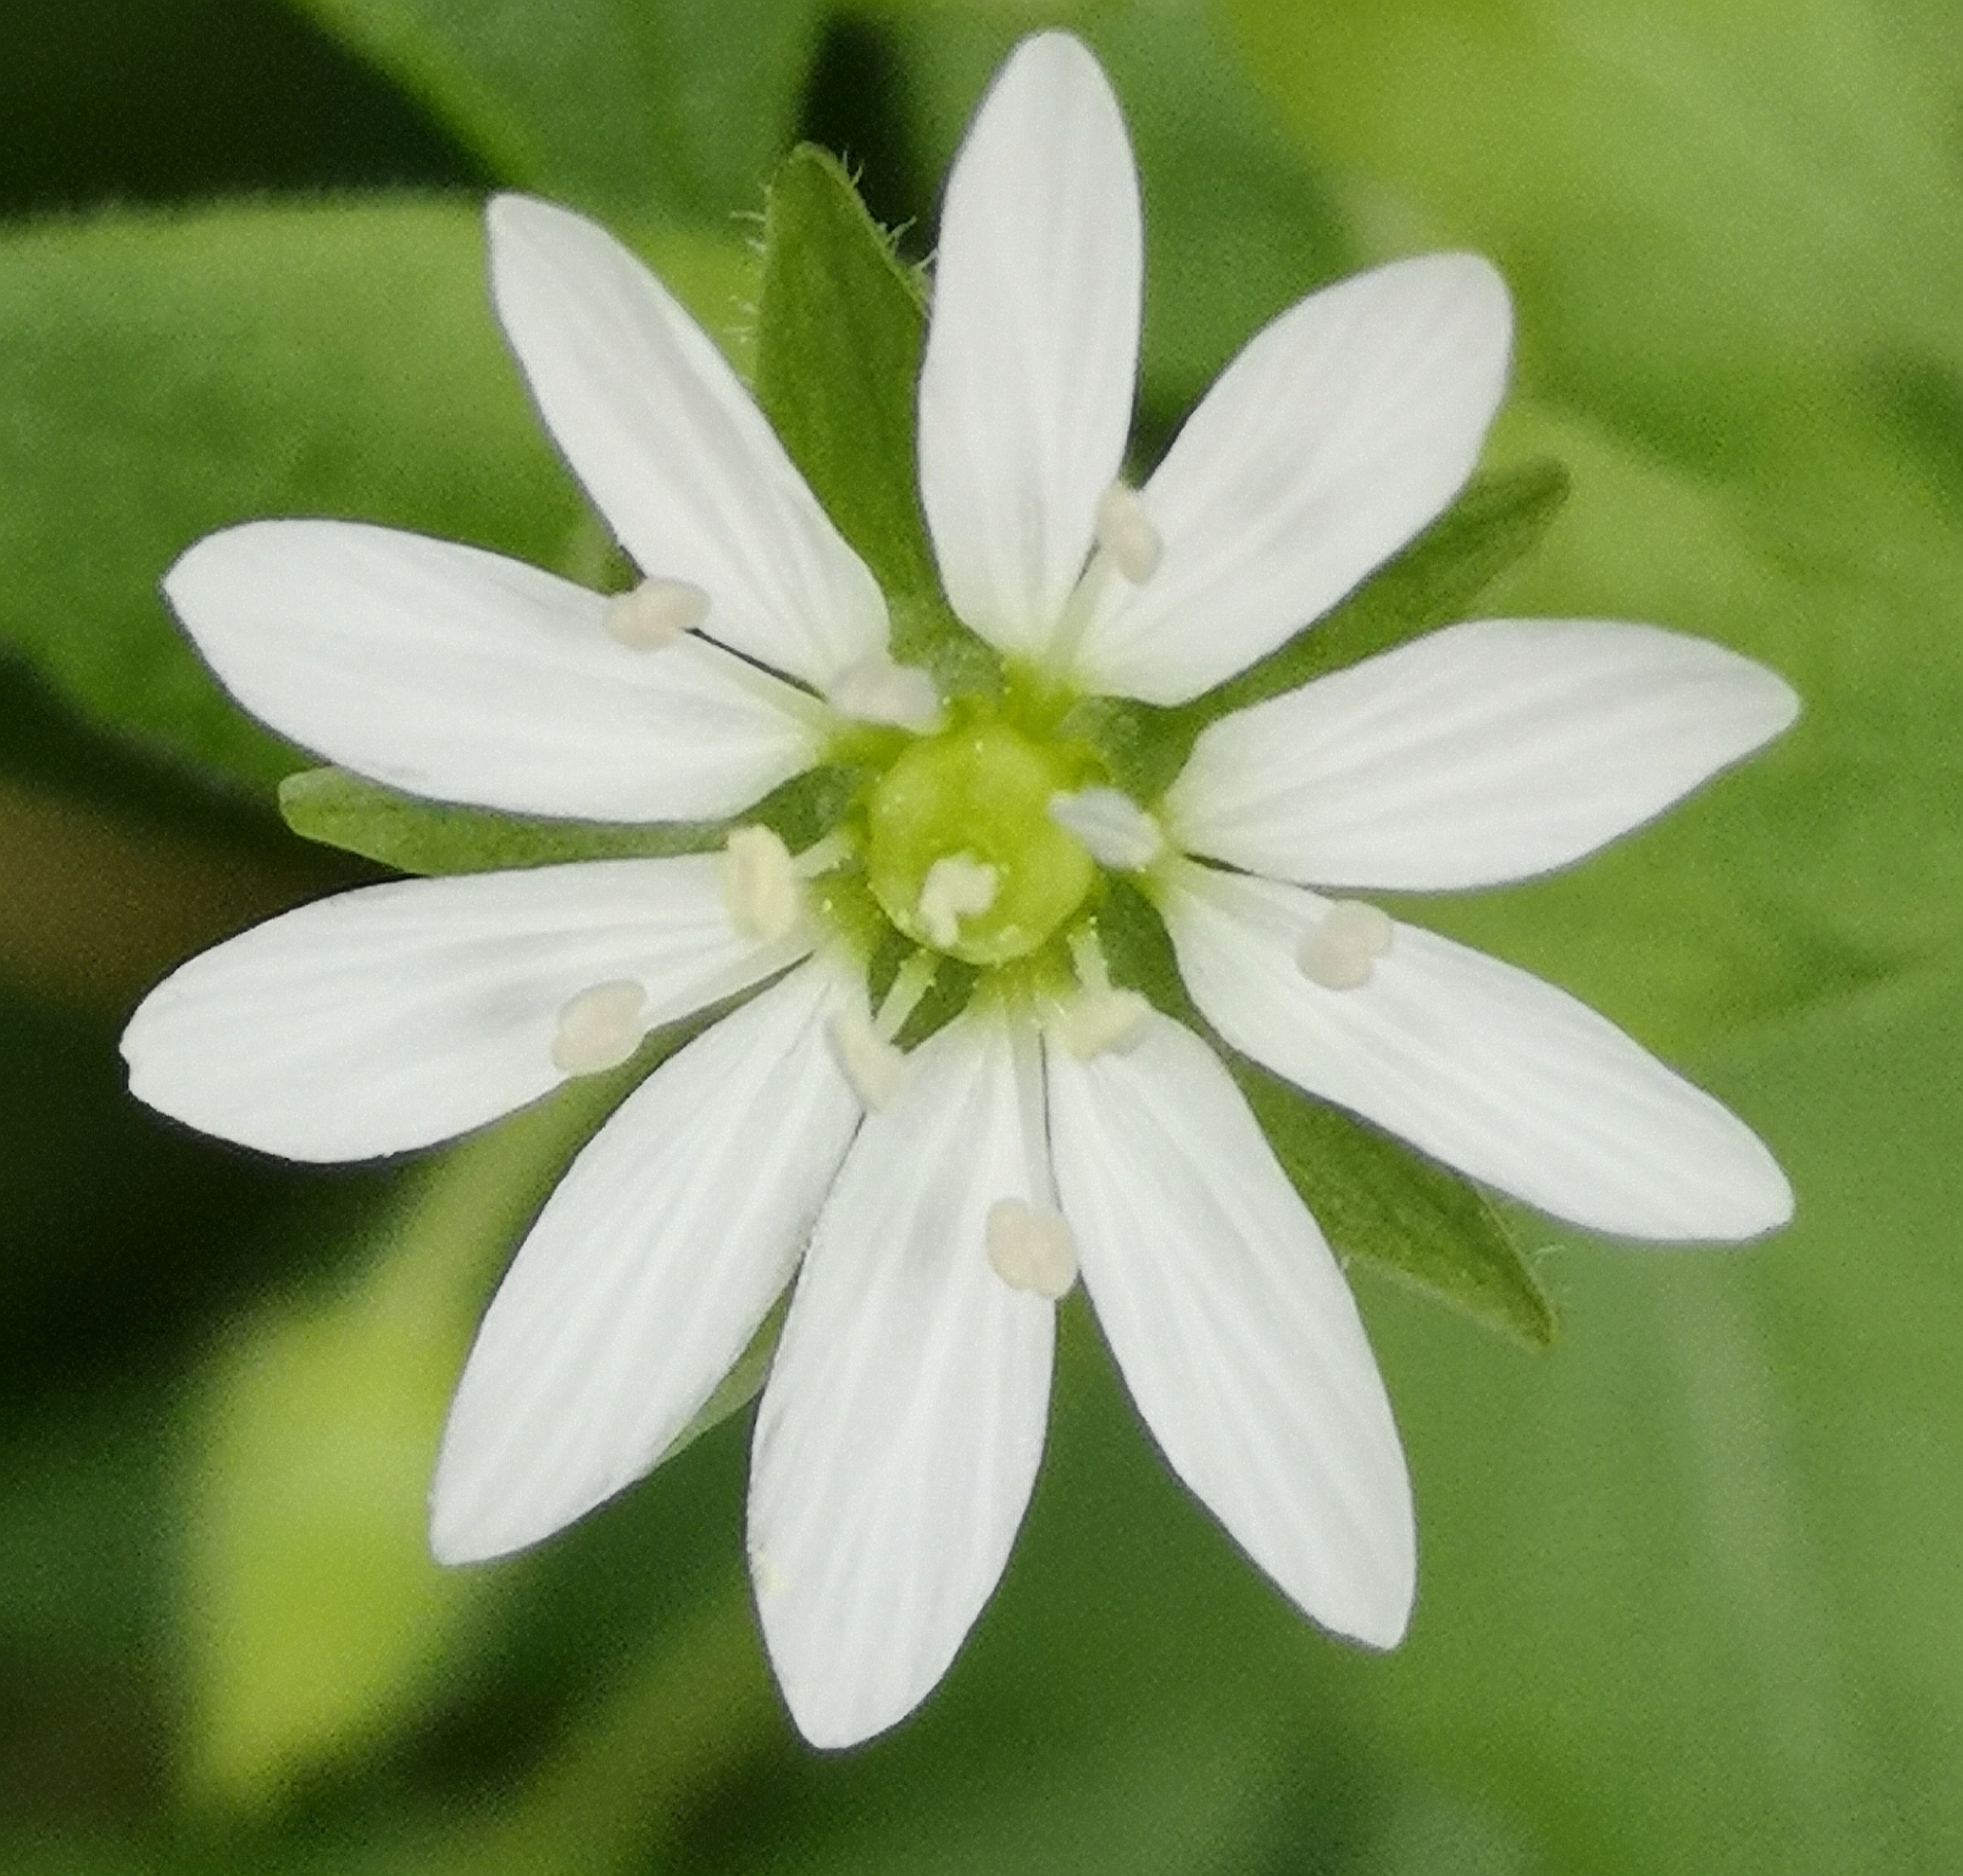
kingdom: Plantae
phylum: Tracheophyta
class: Magnoliopsida
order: Caryophyllales
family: Caryophyllaceae
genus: Stellaria
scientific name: Stellaria aquatica
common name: Water chickweed
